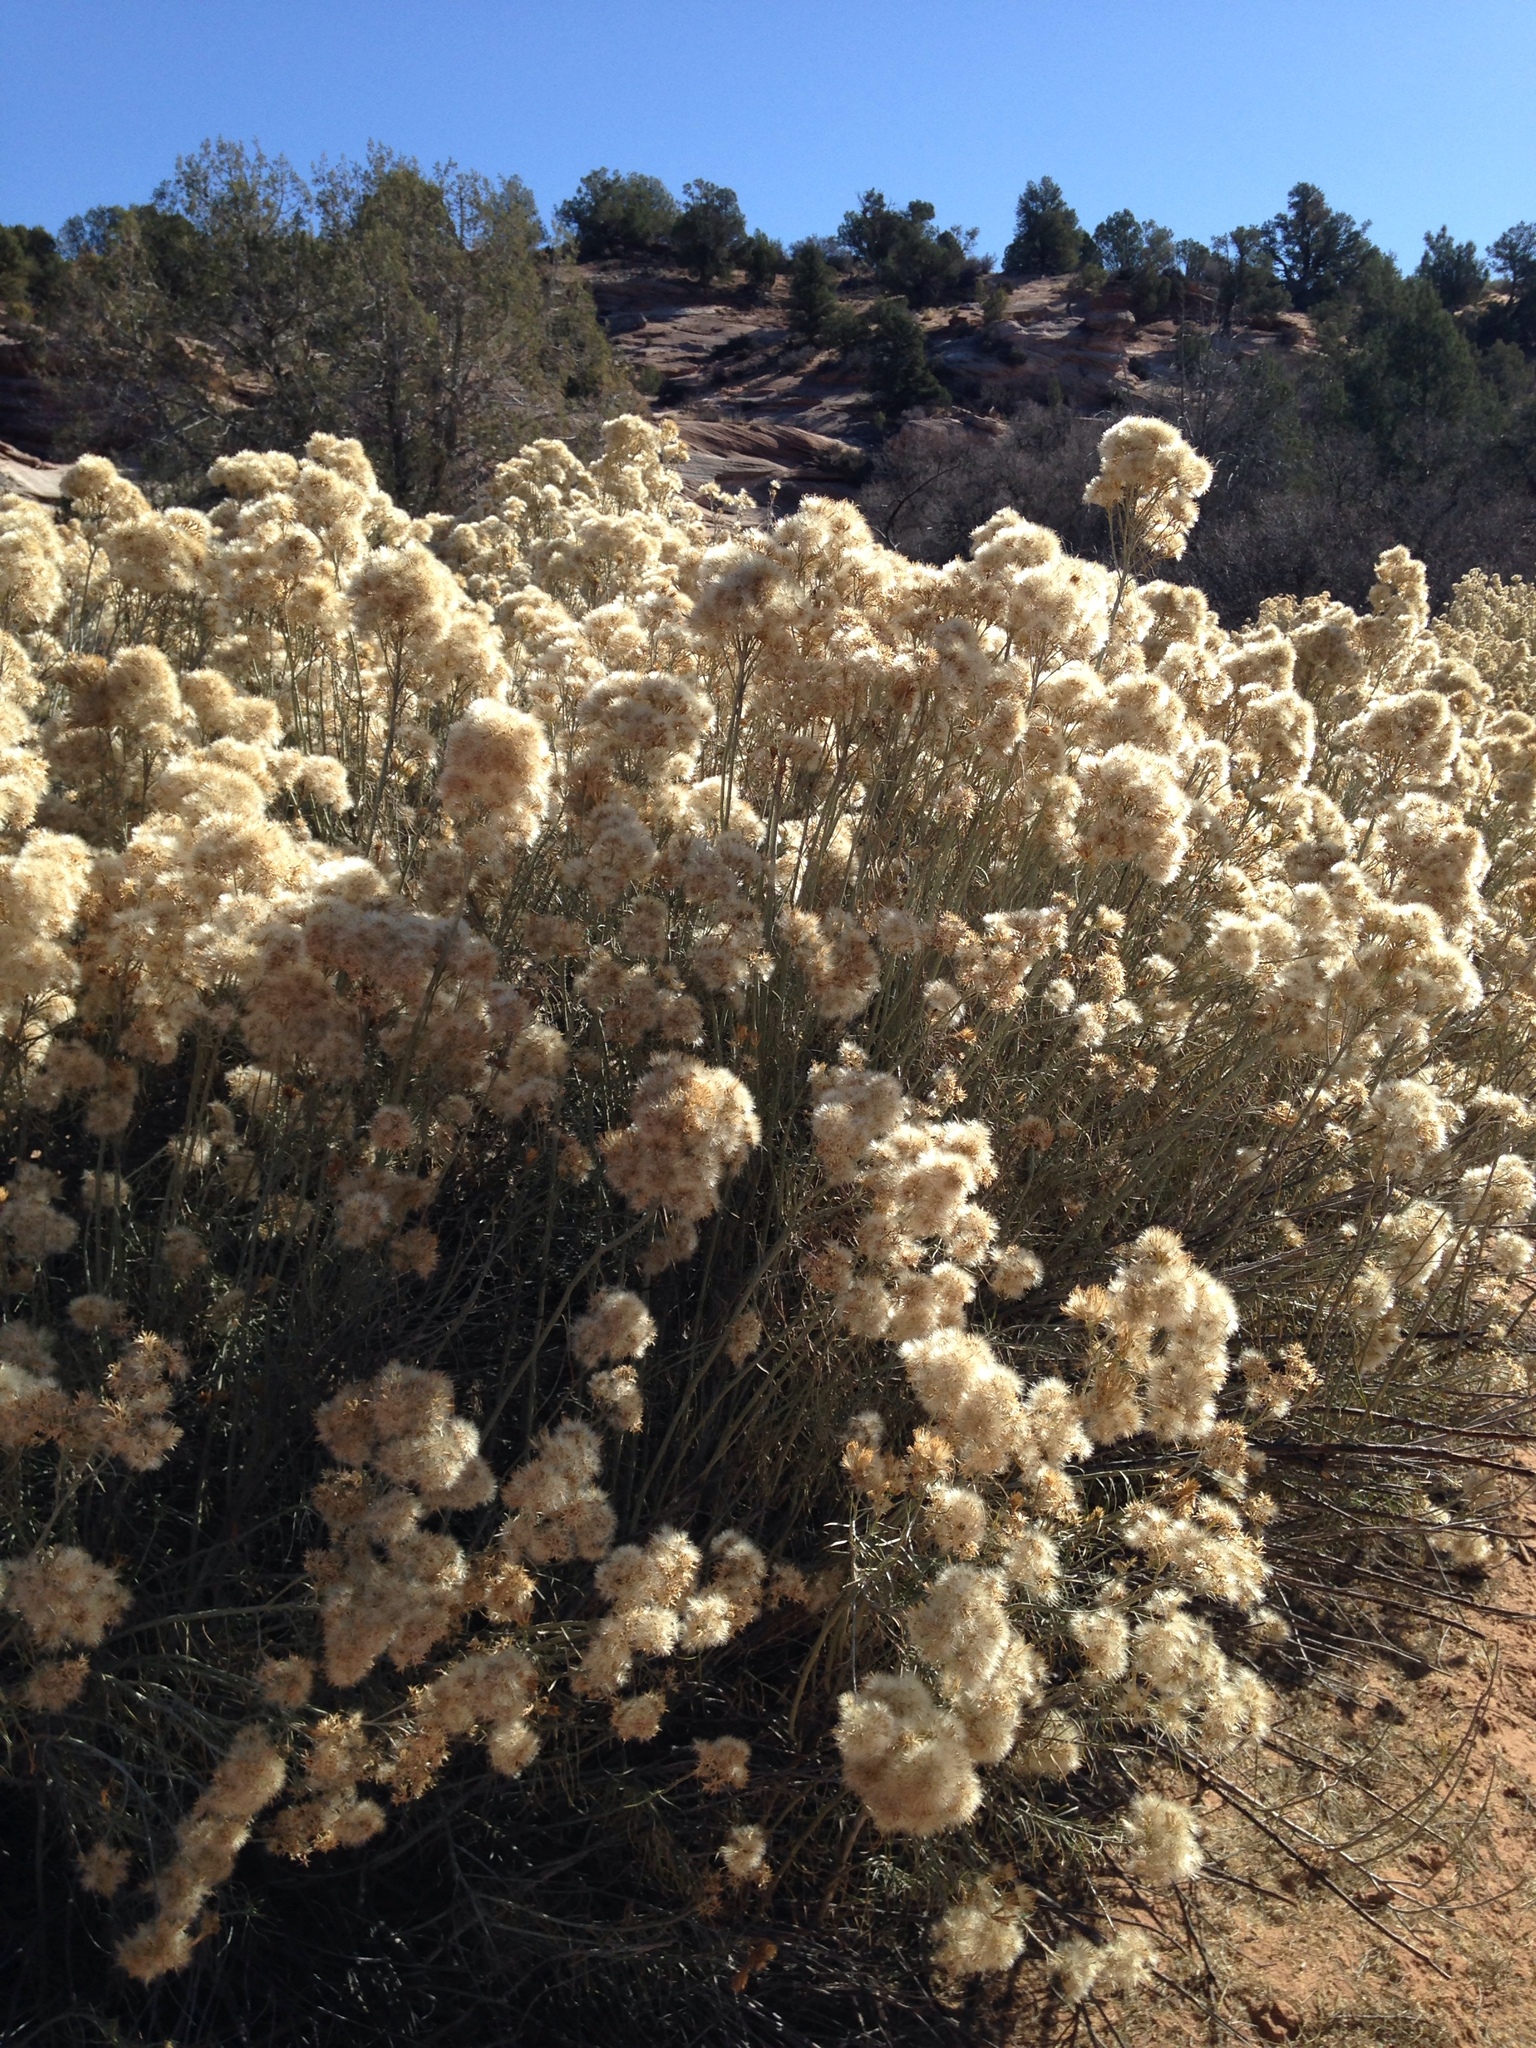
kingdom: Plantae
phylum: Tracheophyta
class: Magnoliopsida
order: Asterales
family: Asteraceae
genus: Ericameria
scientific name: Ericameria nauseosa
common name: Rubber rabbitbrush
